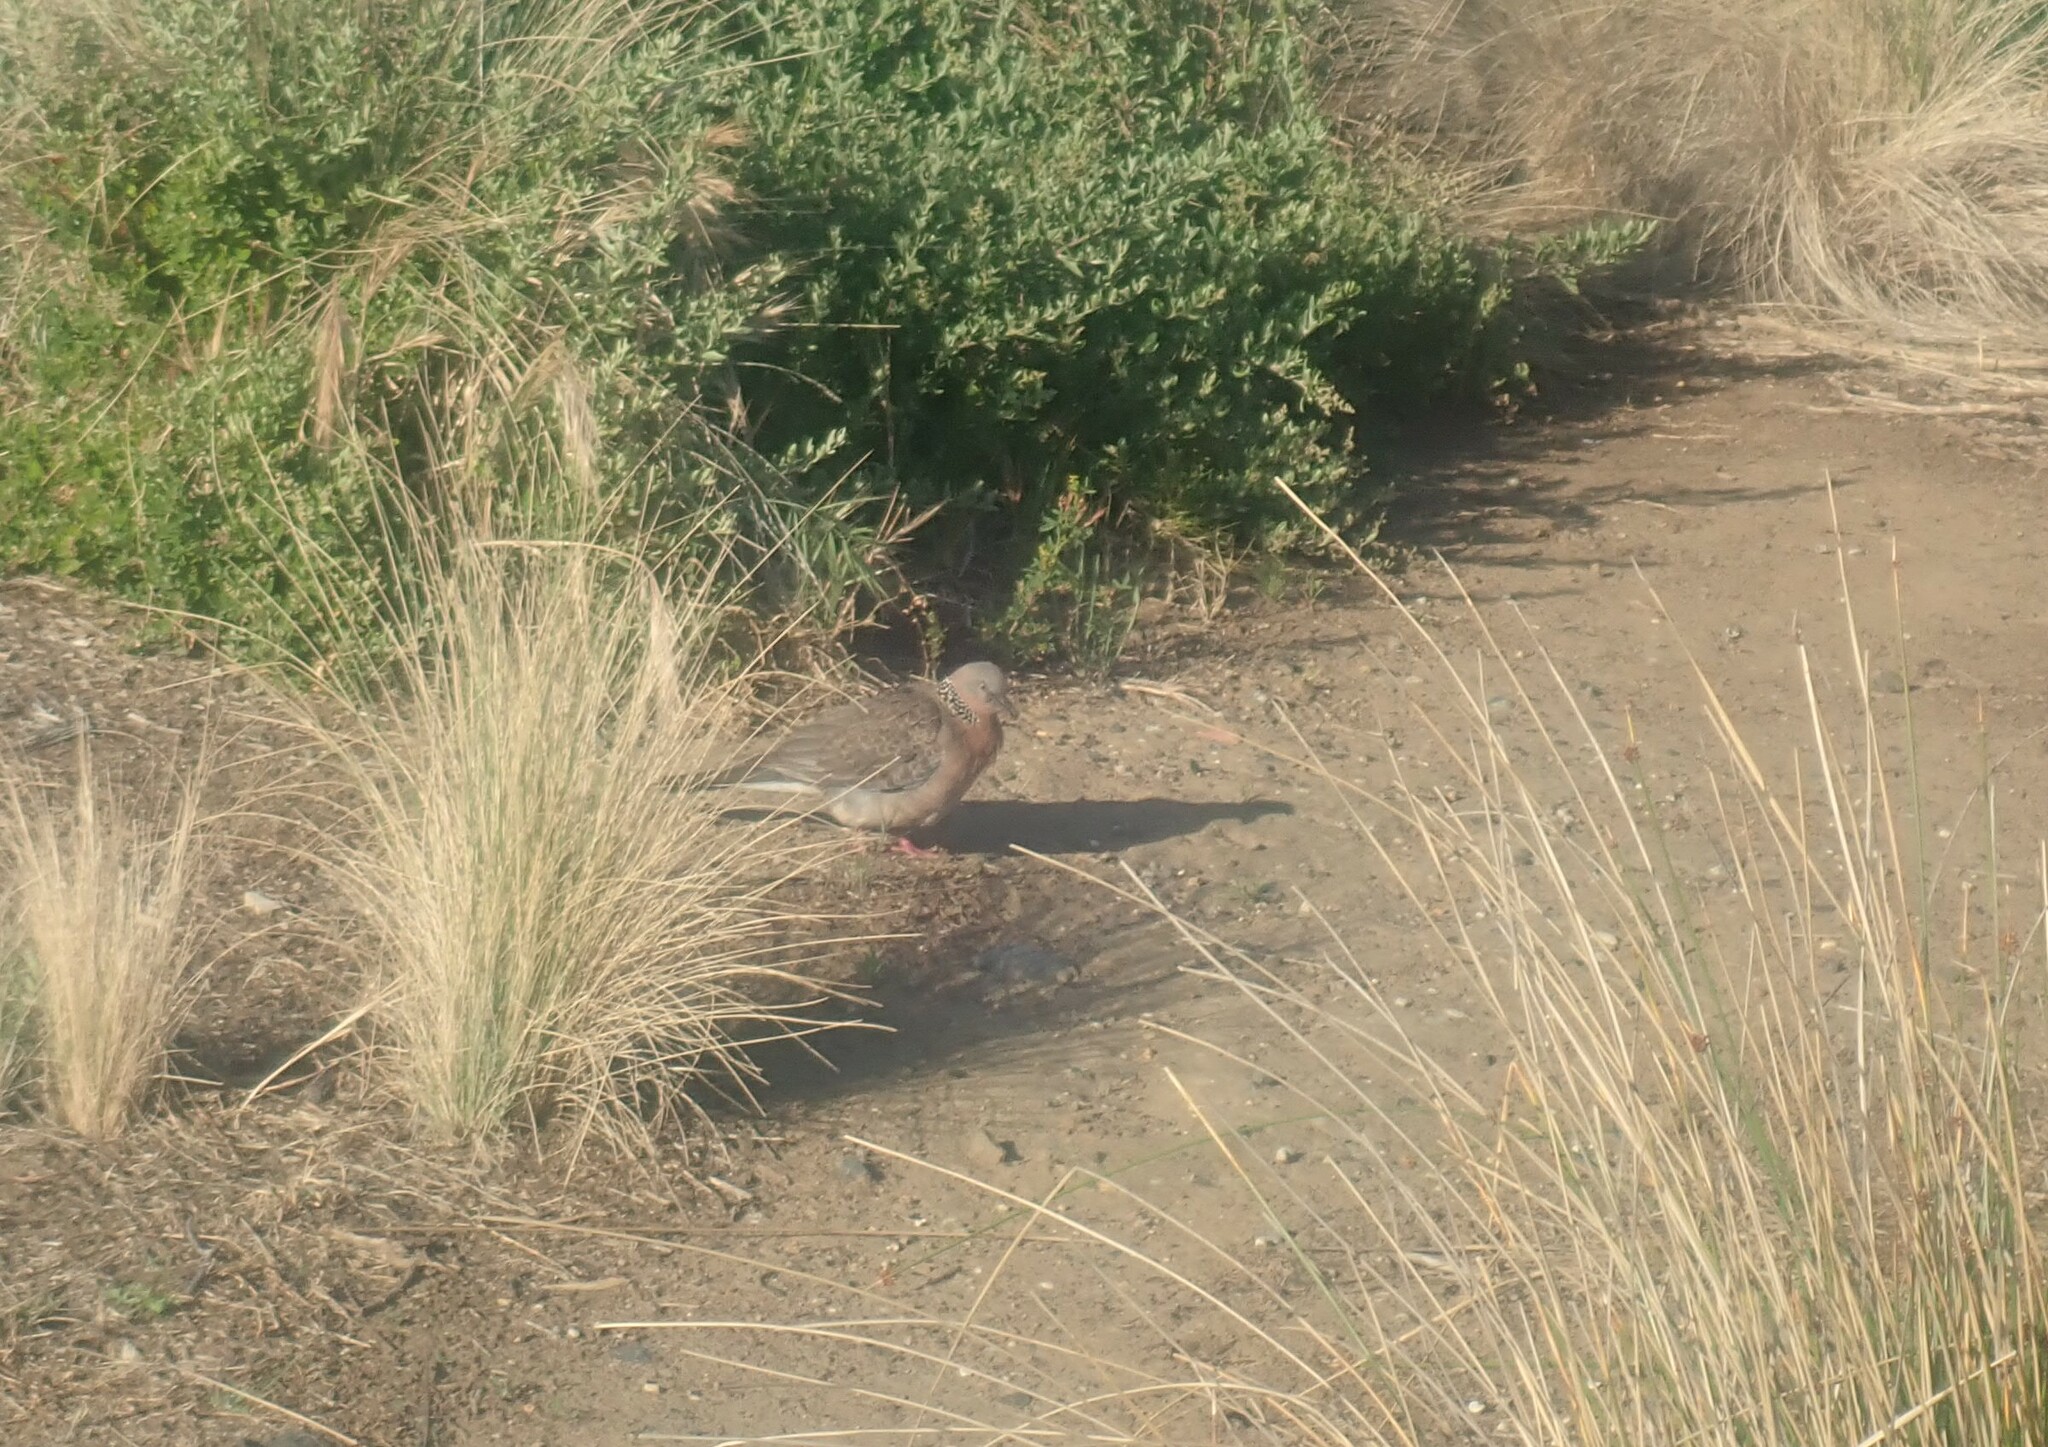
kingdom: Animalia
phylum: Chordata
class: Aves
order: Columbiformes
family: Columbidae
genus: Spilopelia
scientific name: Spilopelia chinensis
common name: Spotted dove
